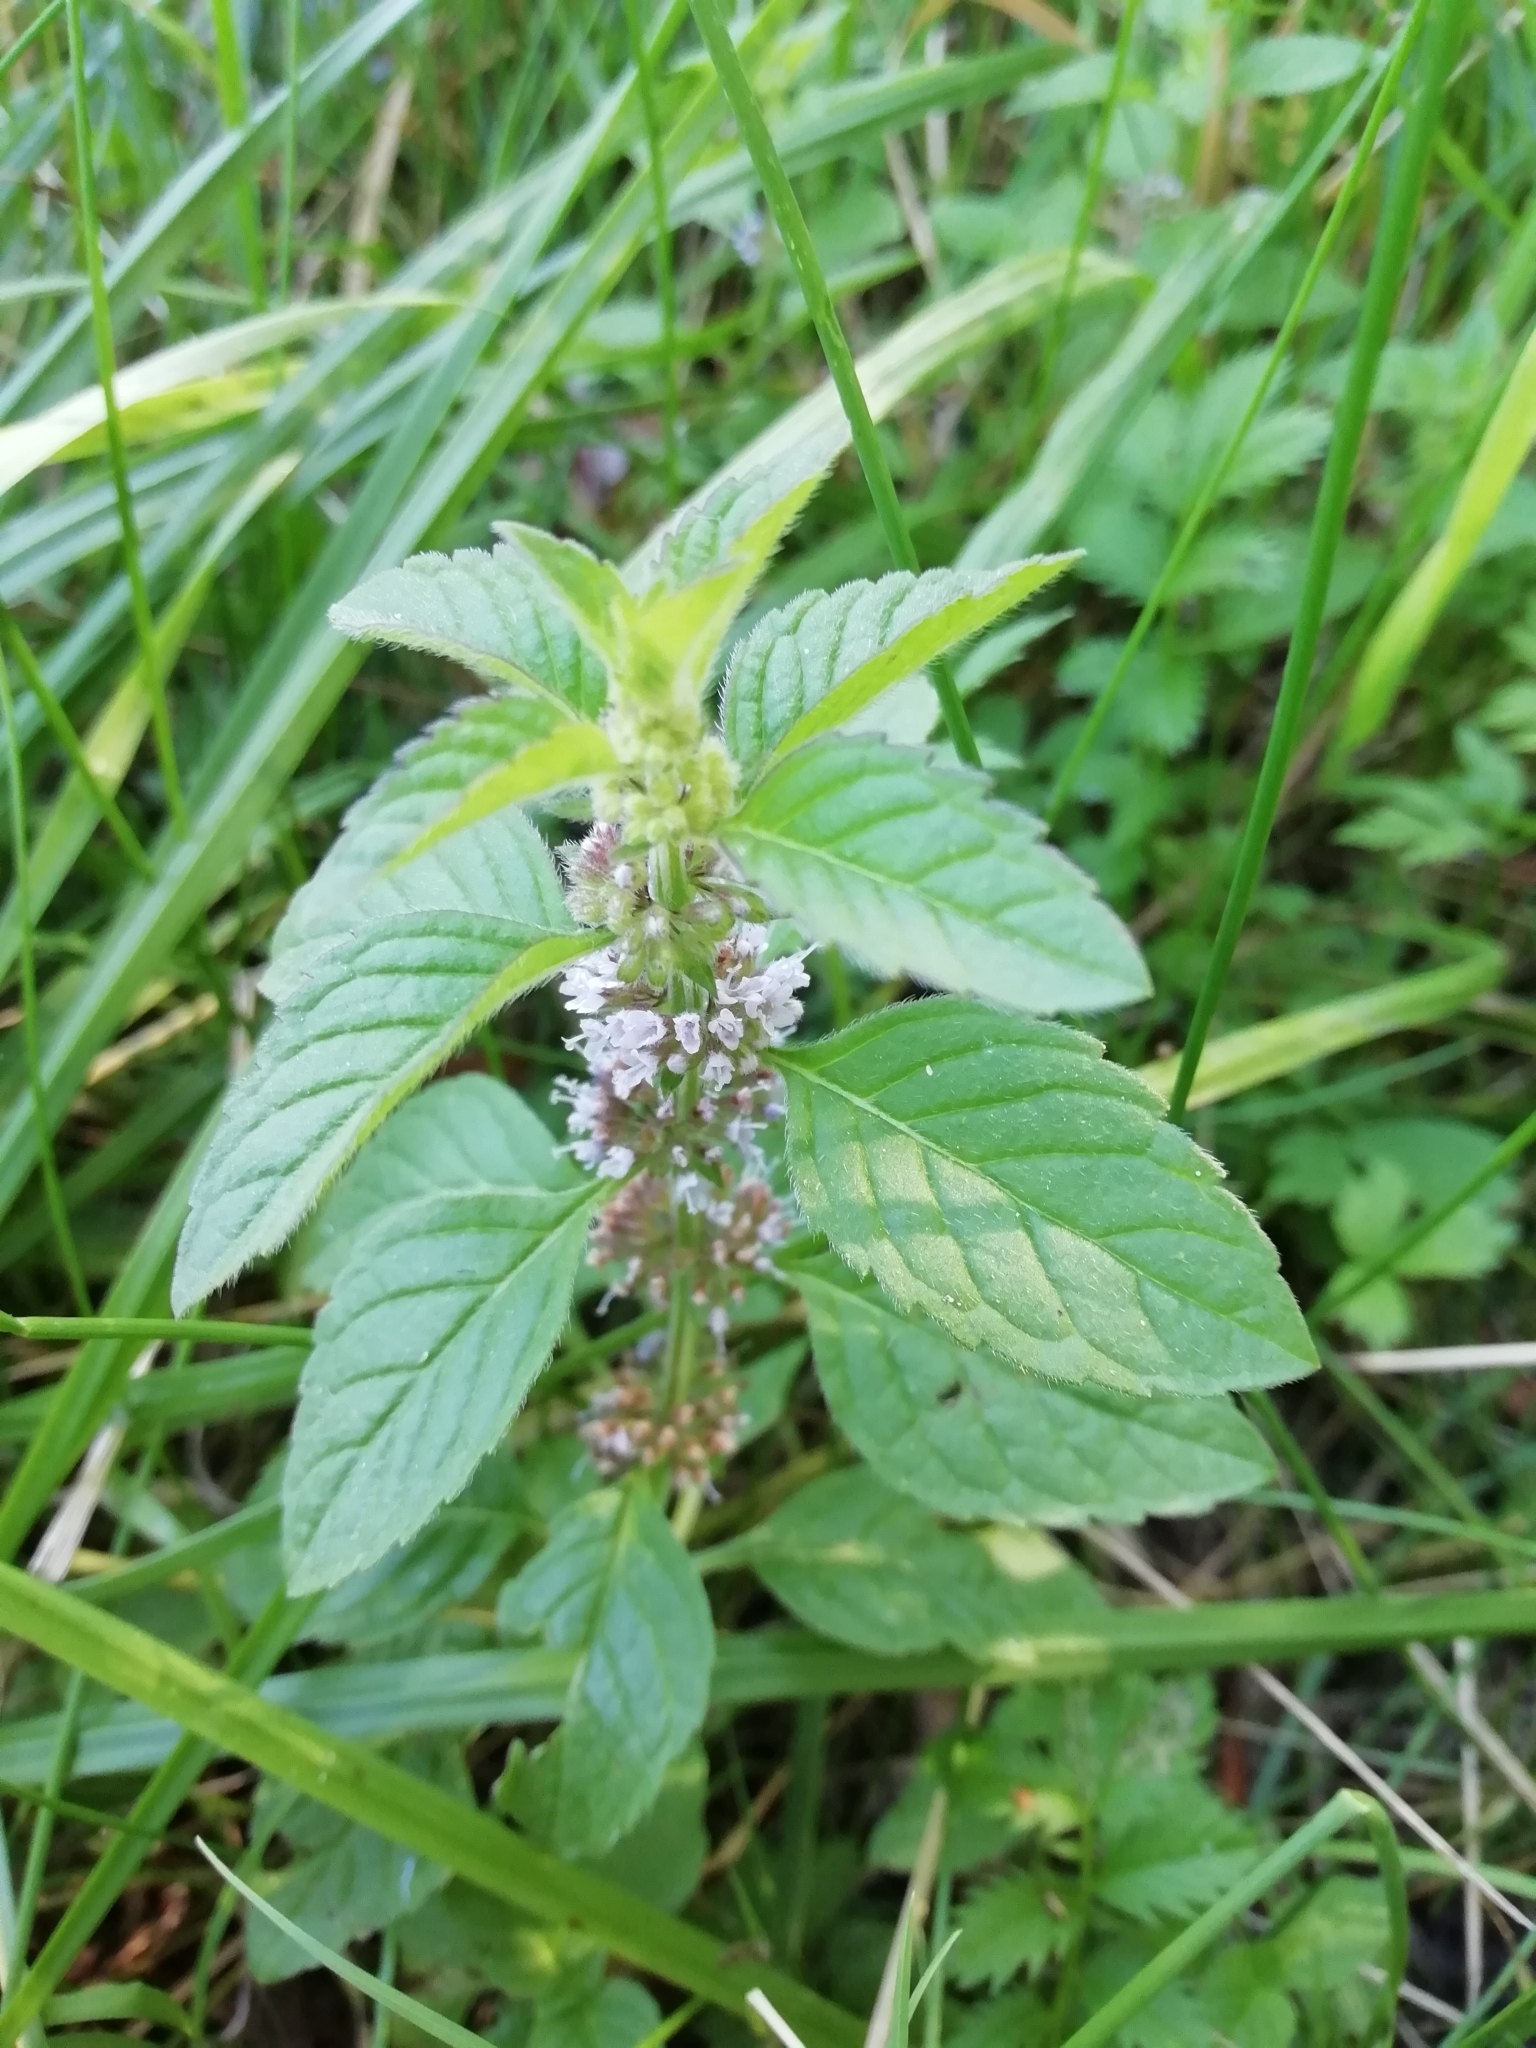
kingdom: Plantae
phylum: Tracheophyta
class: Magnoliopsida
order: Lamiales
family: Lamiaceae
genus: Mentha
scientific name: Mentha arvensis
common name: Corn mint
